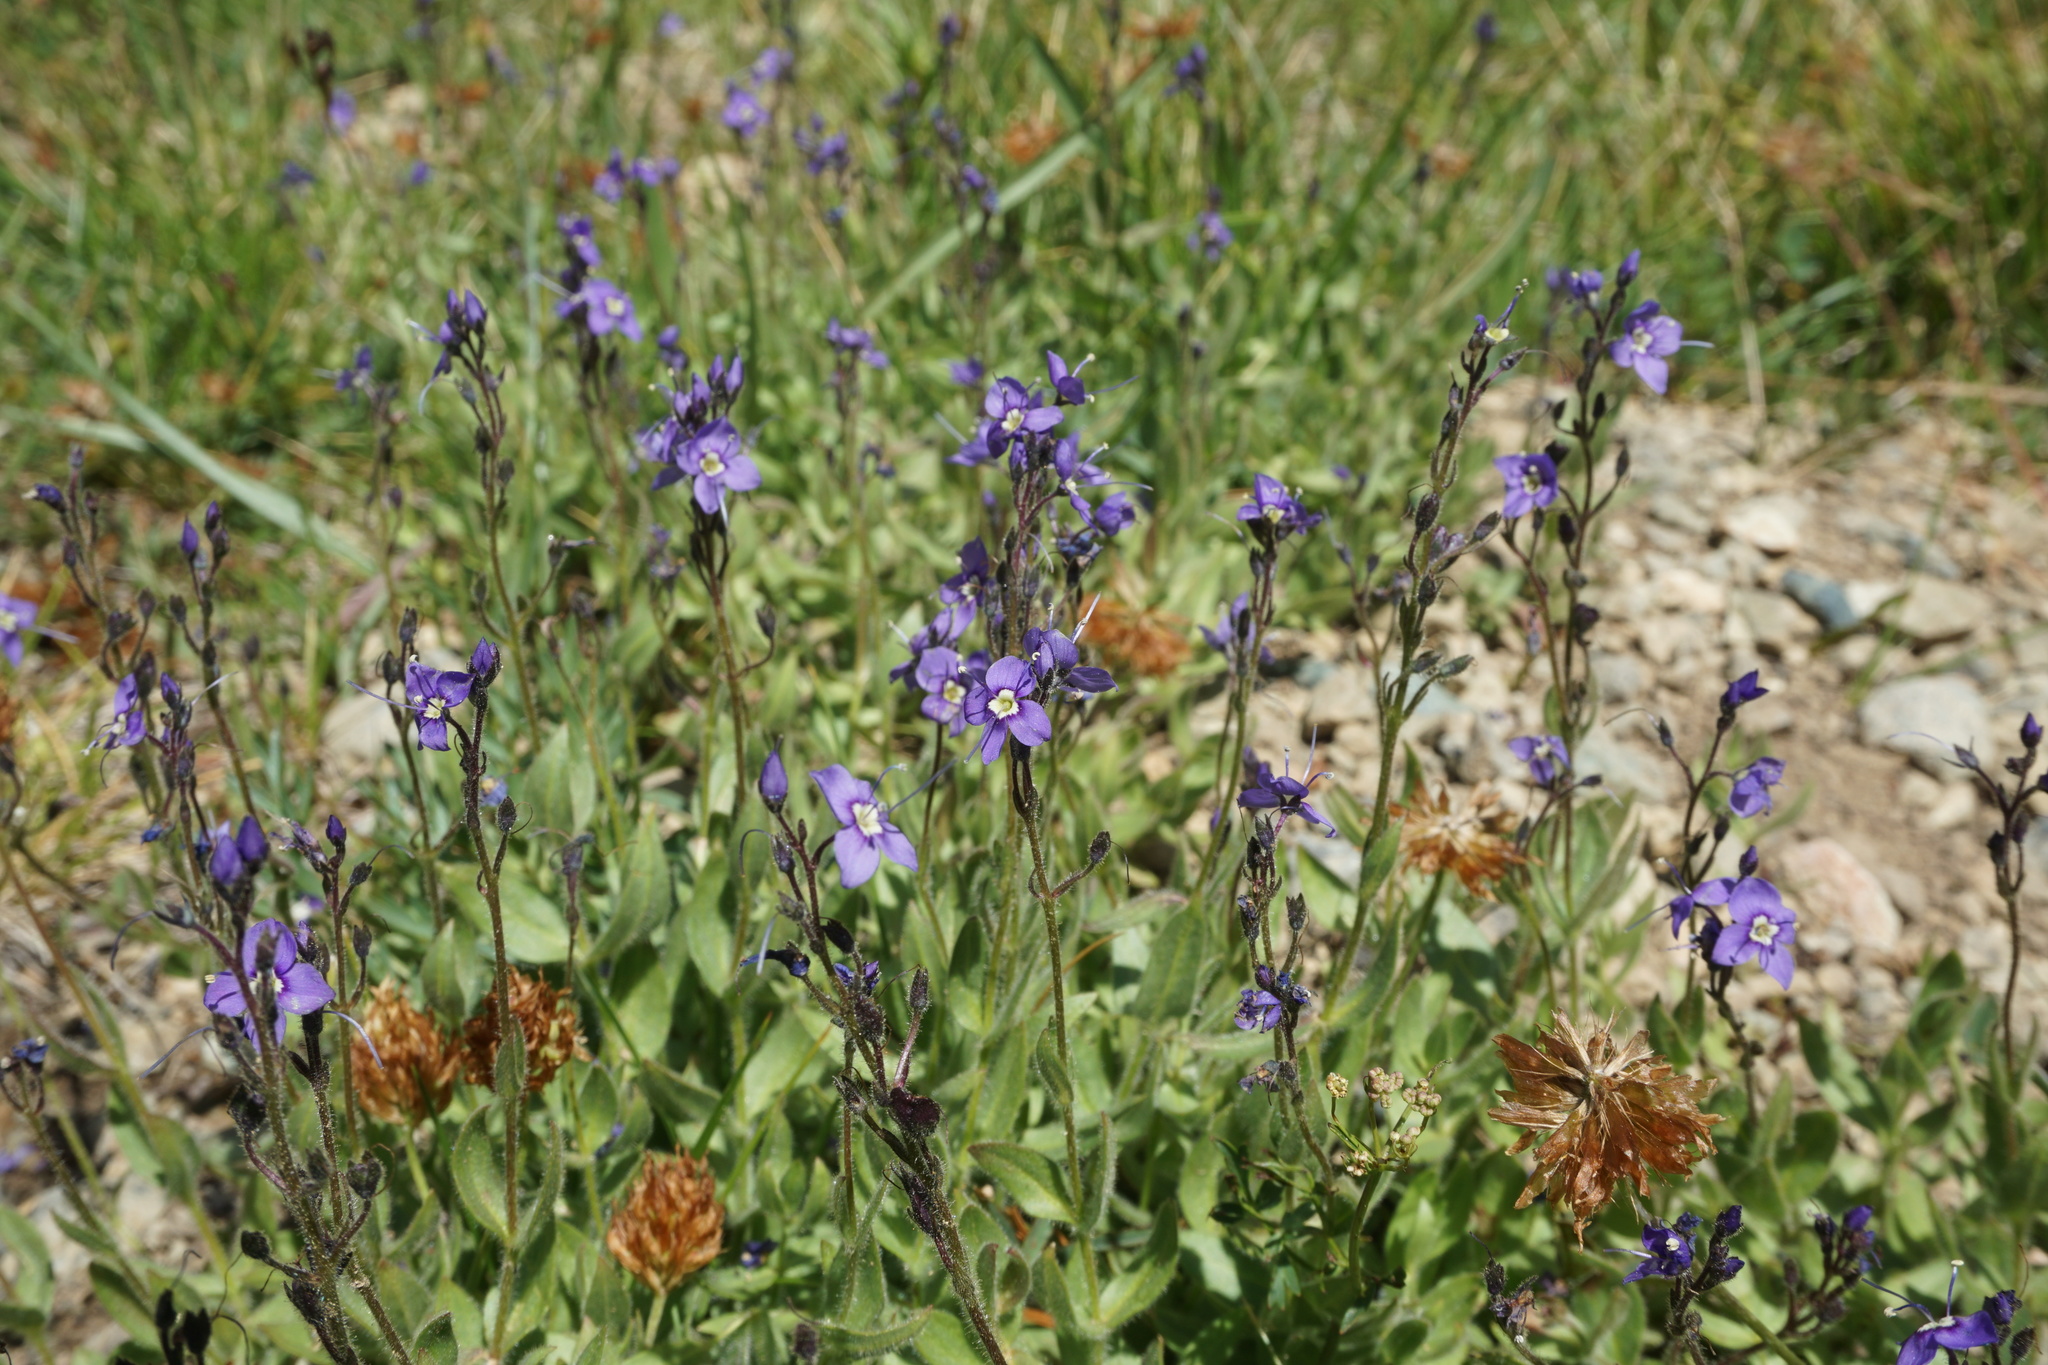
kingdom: Plantae
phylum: Tracheophyta
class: Magnoliopsida
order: Lamiales
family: Plantaginaceae
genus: Veronica
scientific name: Veronica copelandii
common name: Copeland's speedwell
